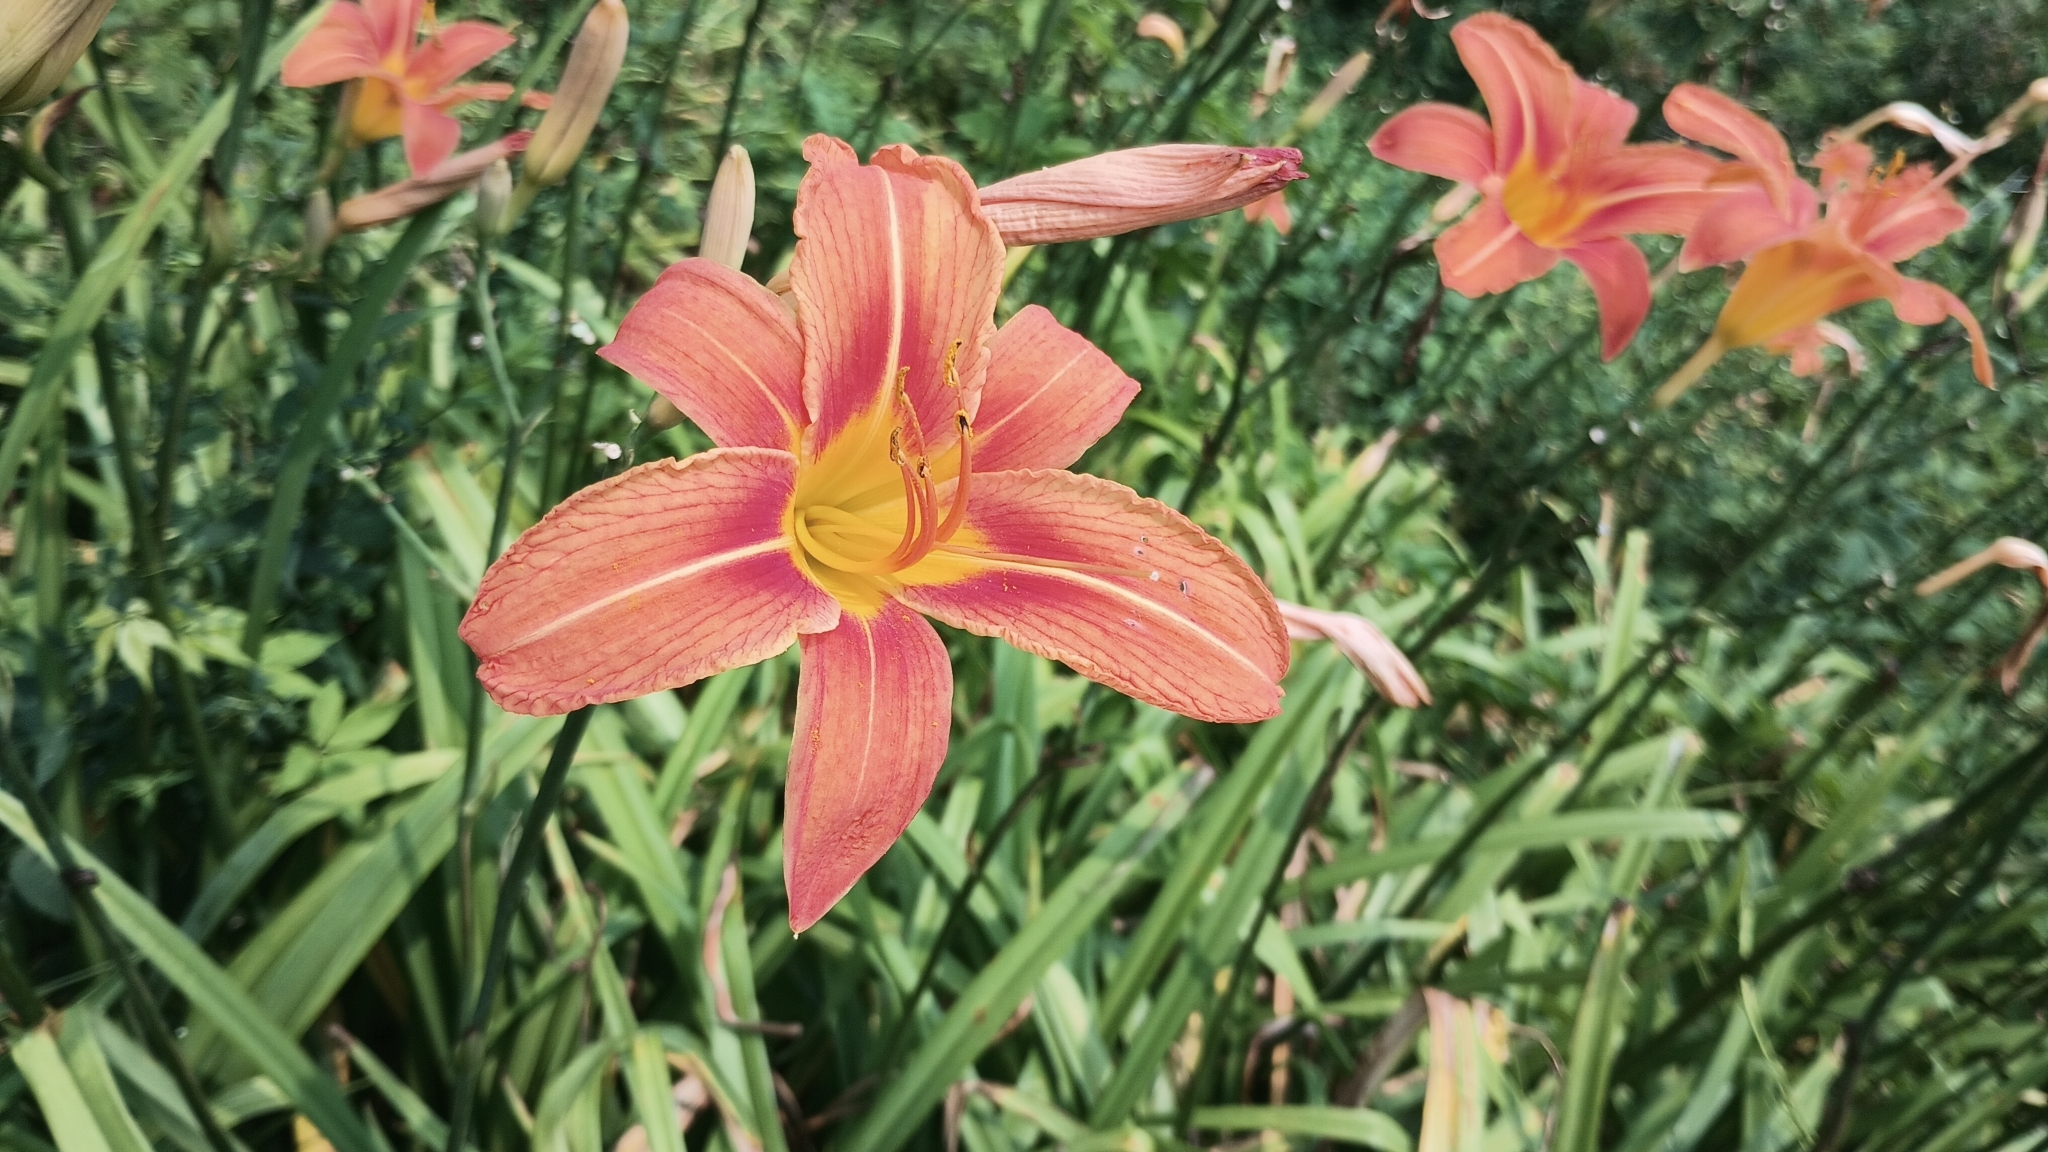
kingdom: Plantae
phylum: Tracheophyta
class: Liliopsida
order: Asparagales
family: Asphodelaceae
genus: Hemerocallis
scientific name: Hemerocallis fulva
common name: Orange day-lily
